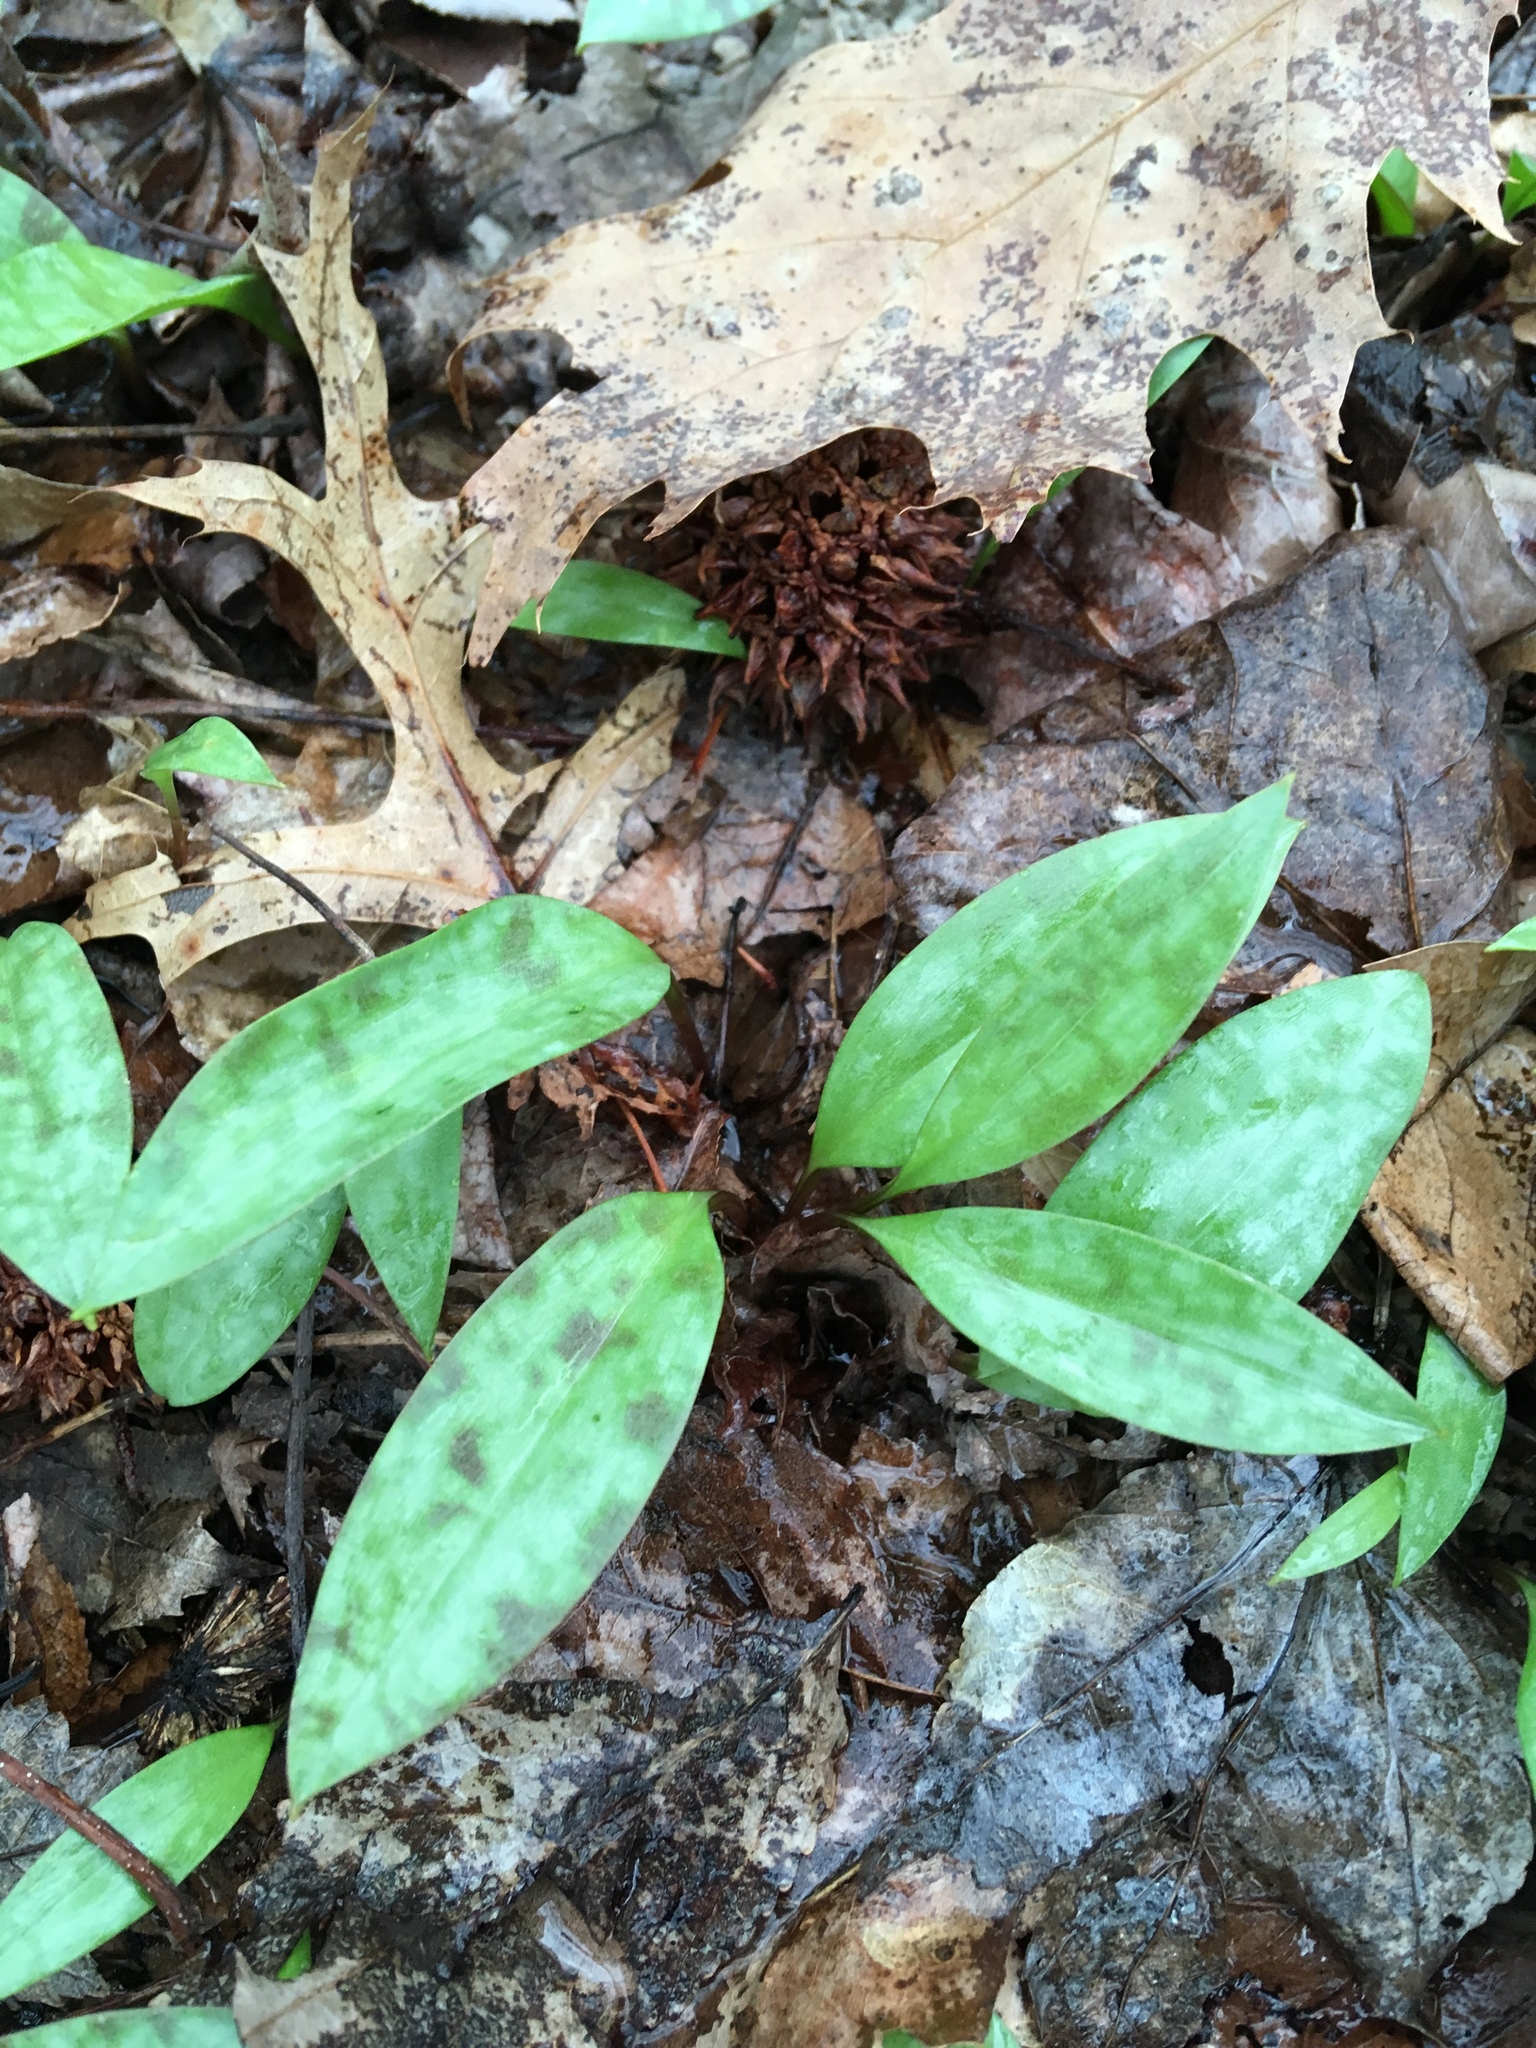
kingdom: Plantae
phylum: Tracheophyta
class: Liliopsida
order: Liliales
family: Liliaceae
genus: Erythronium
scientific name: Erythronium americanum
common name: Yellow adder's-tongue
